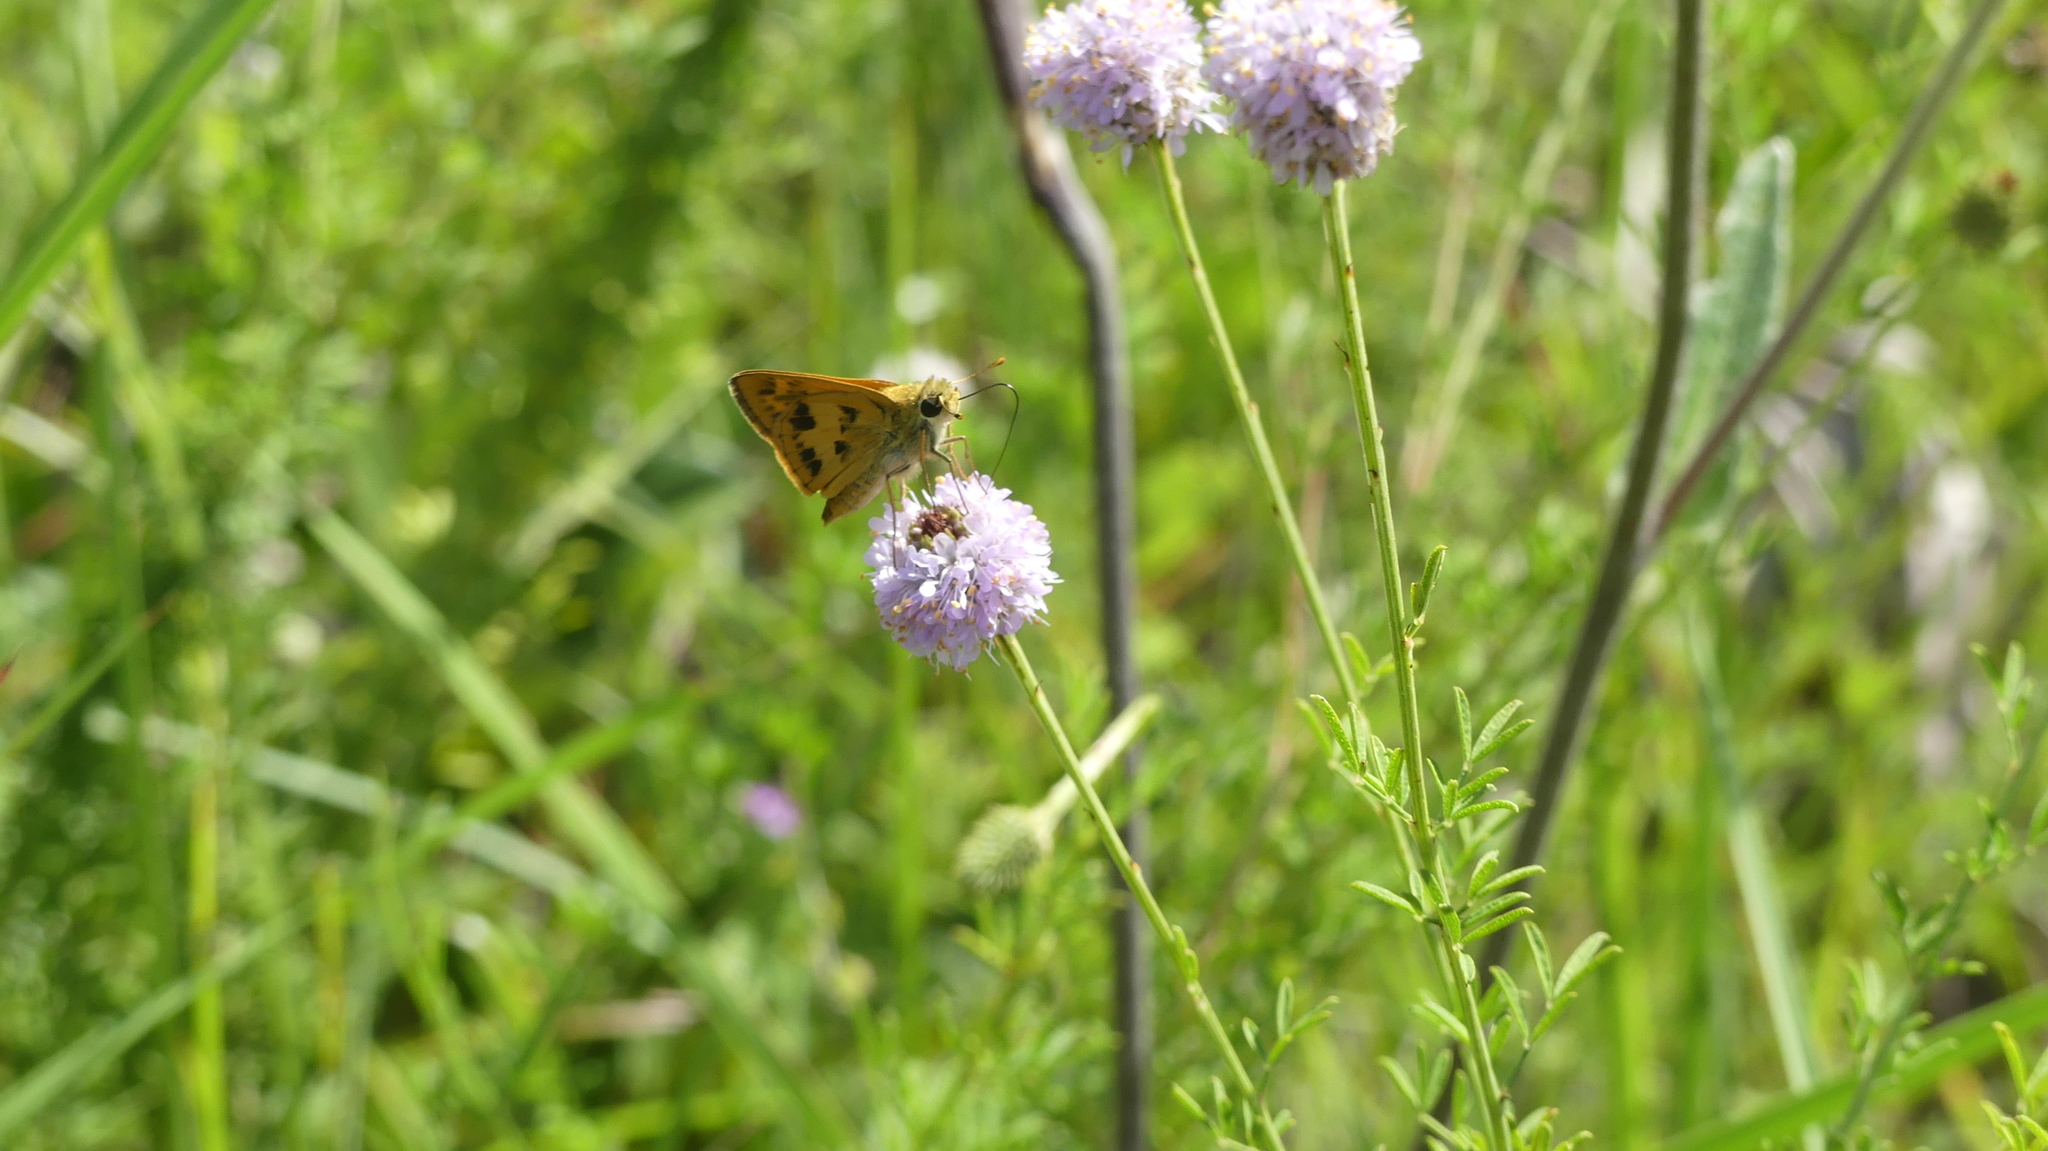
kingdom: Animalia
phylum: Arthropoda
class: Insecta
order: Lepidoptera
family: Hesperiidae
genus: Polites
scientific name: Polites vibex
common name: Whirlabout
